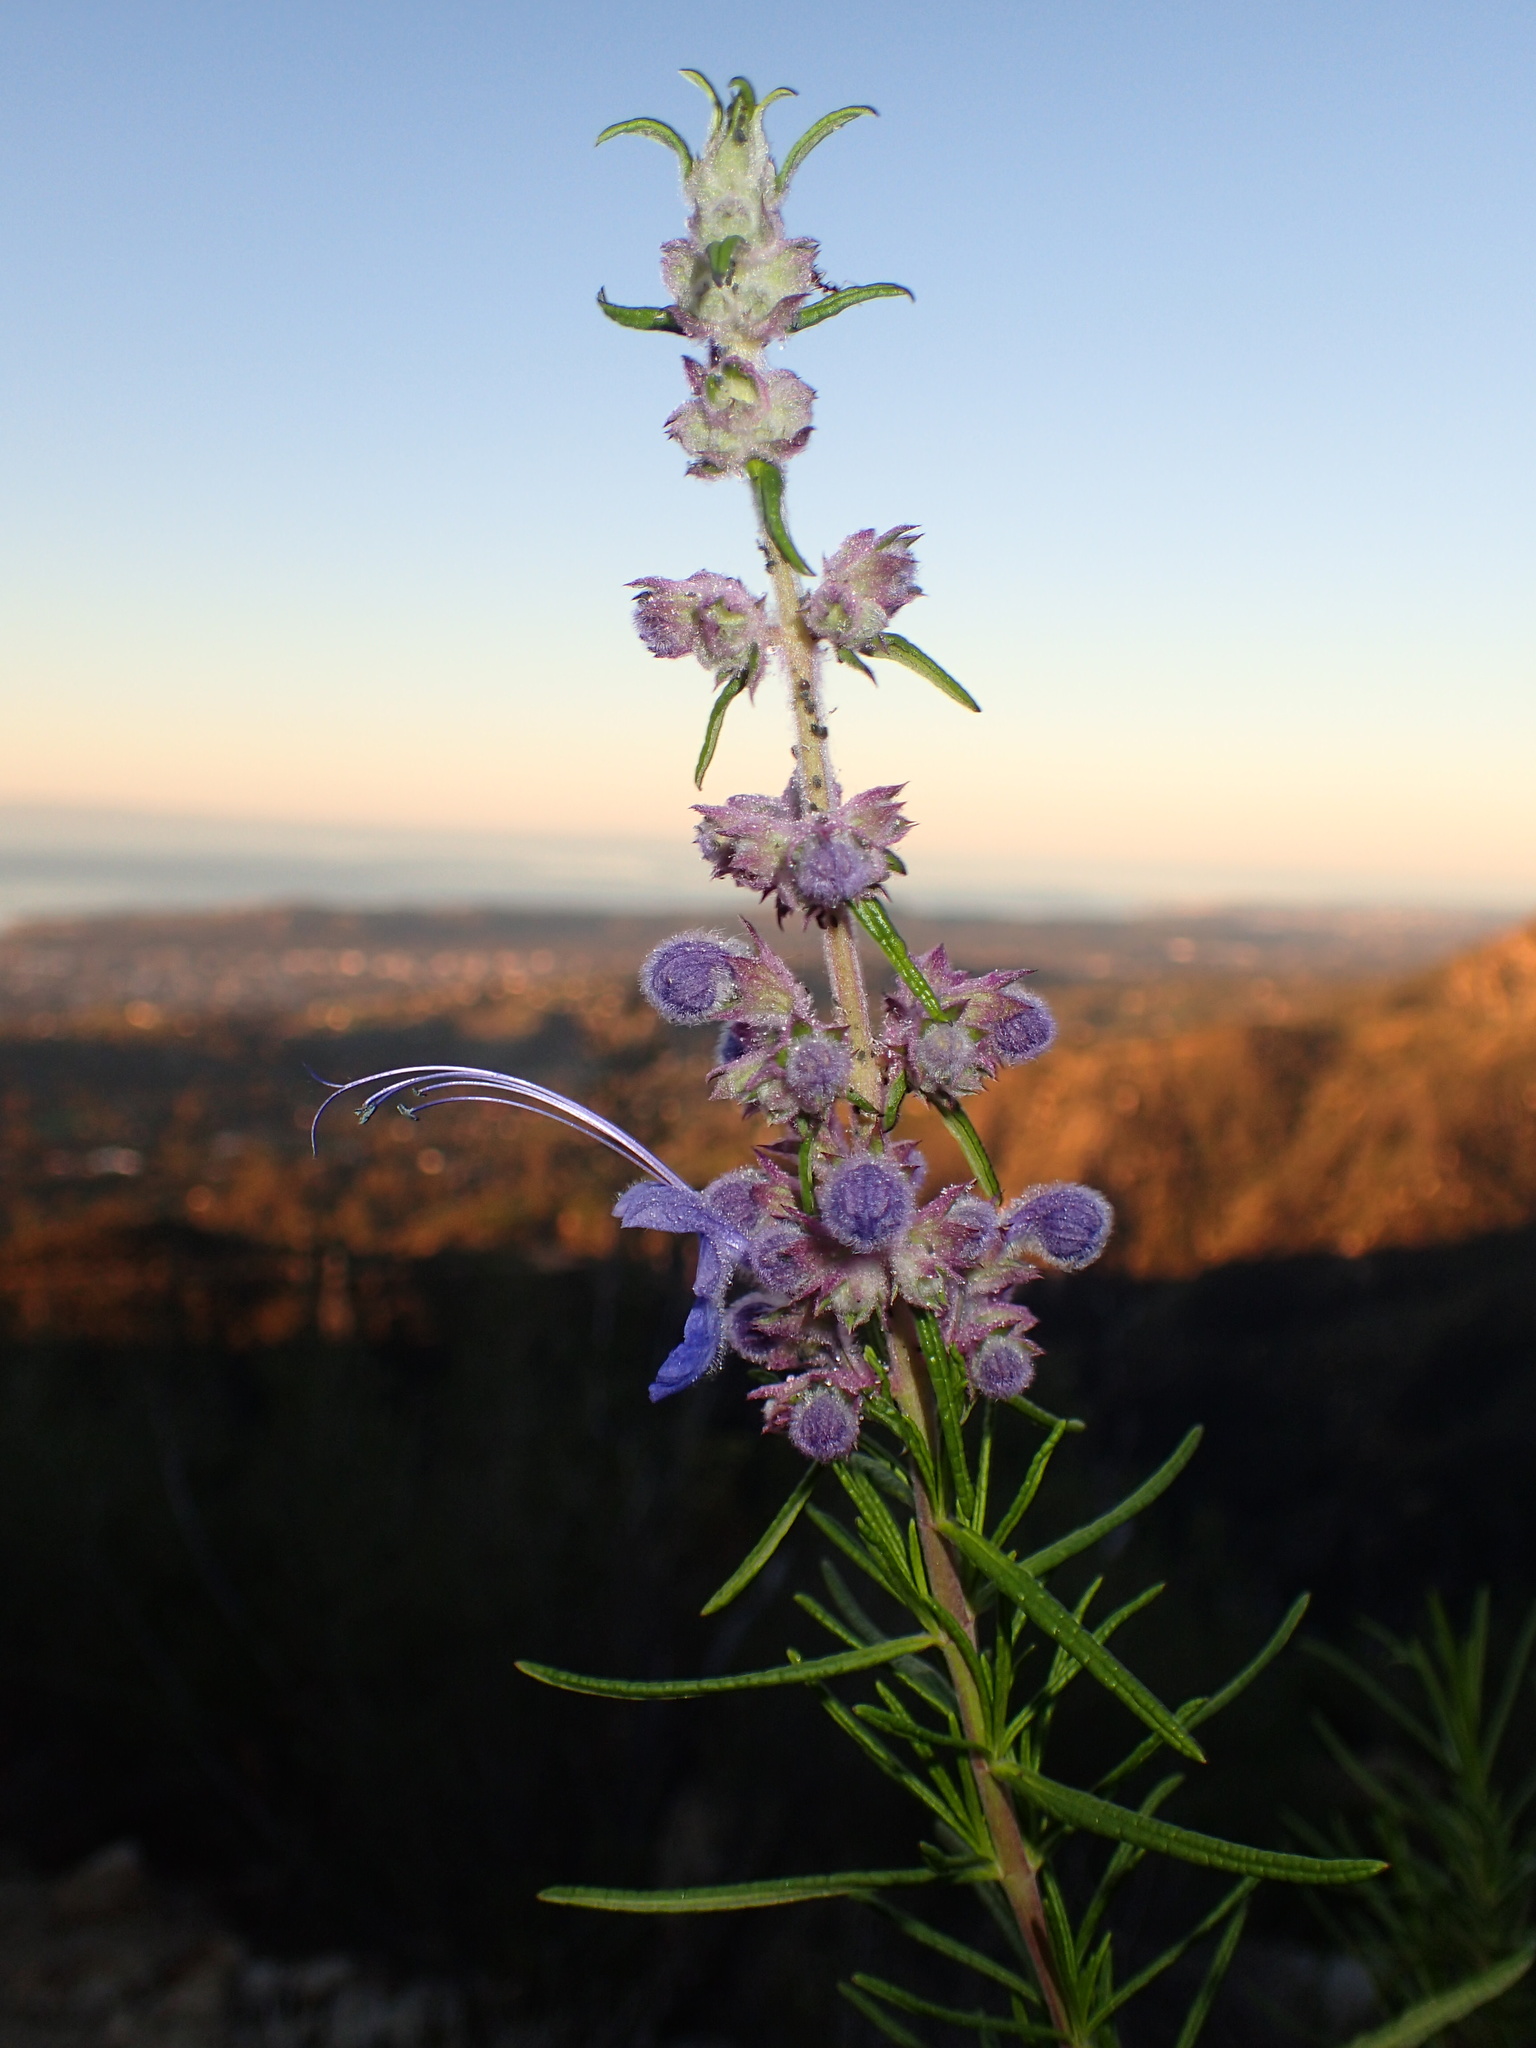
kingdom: Plantae
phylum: Tracheophyta
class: Magnoliopsida
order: Lamiales
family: Lamiaceae
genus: Trichostema
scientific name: Trichostema lanatum
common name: Woolly bluecurls
